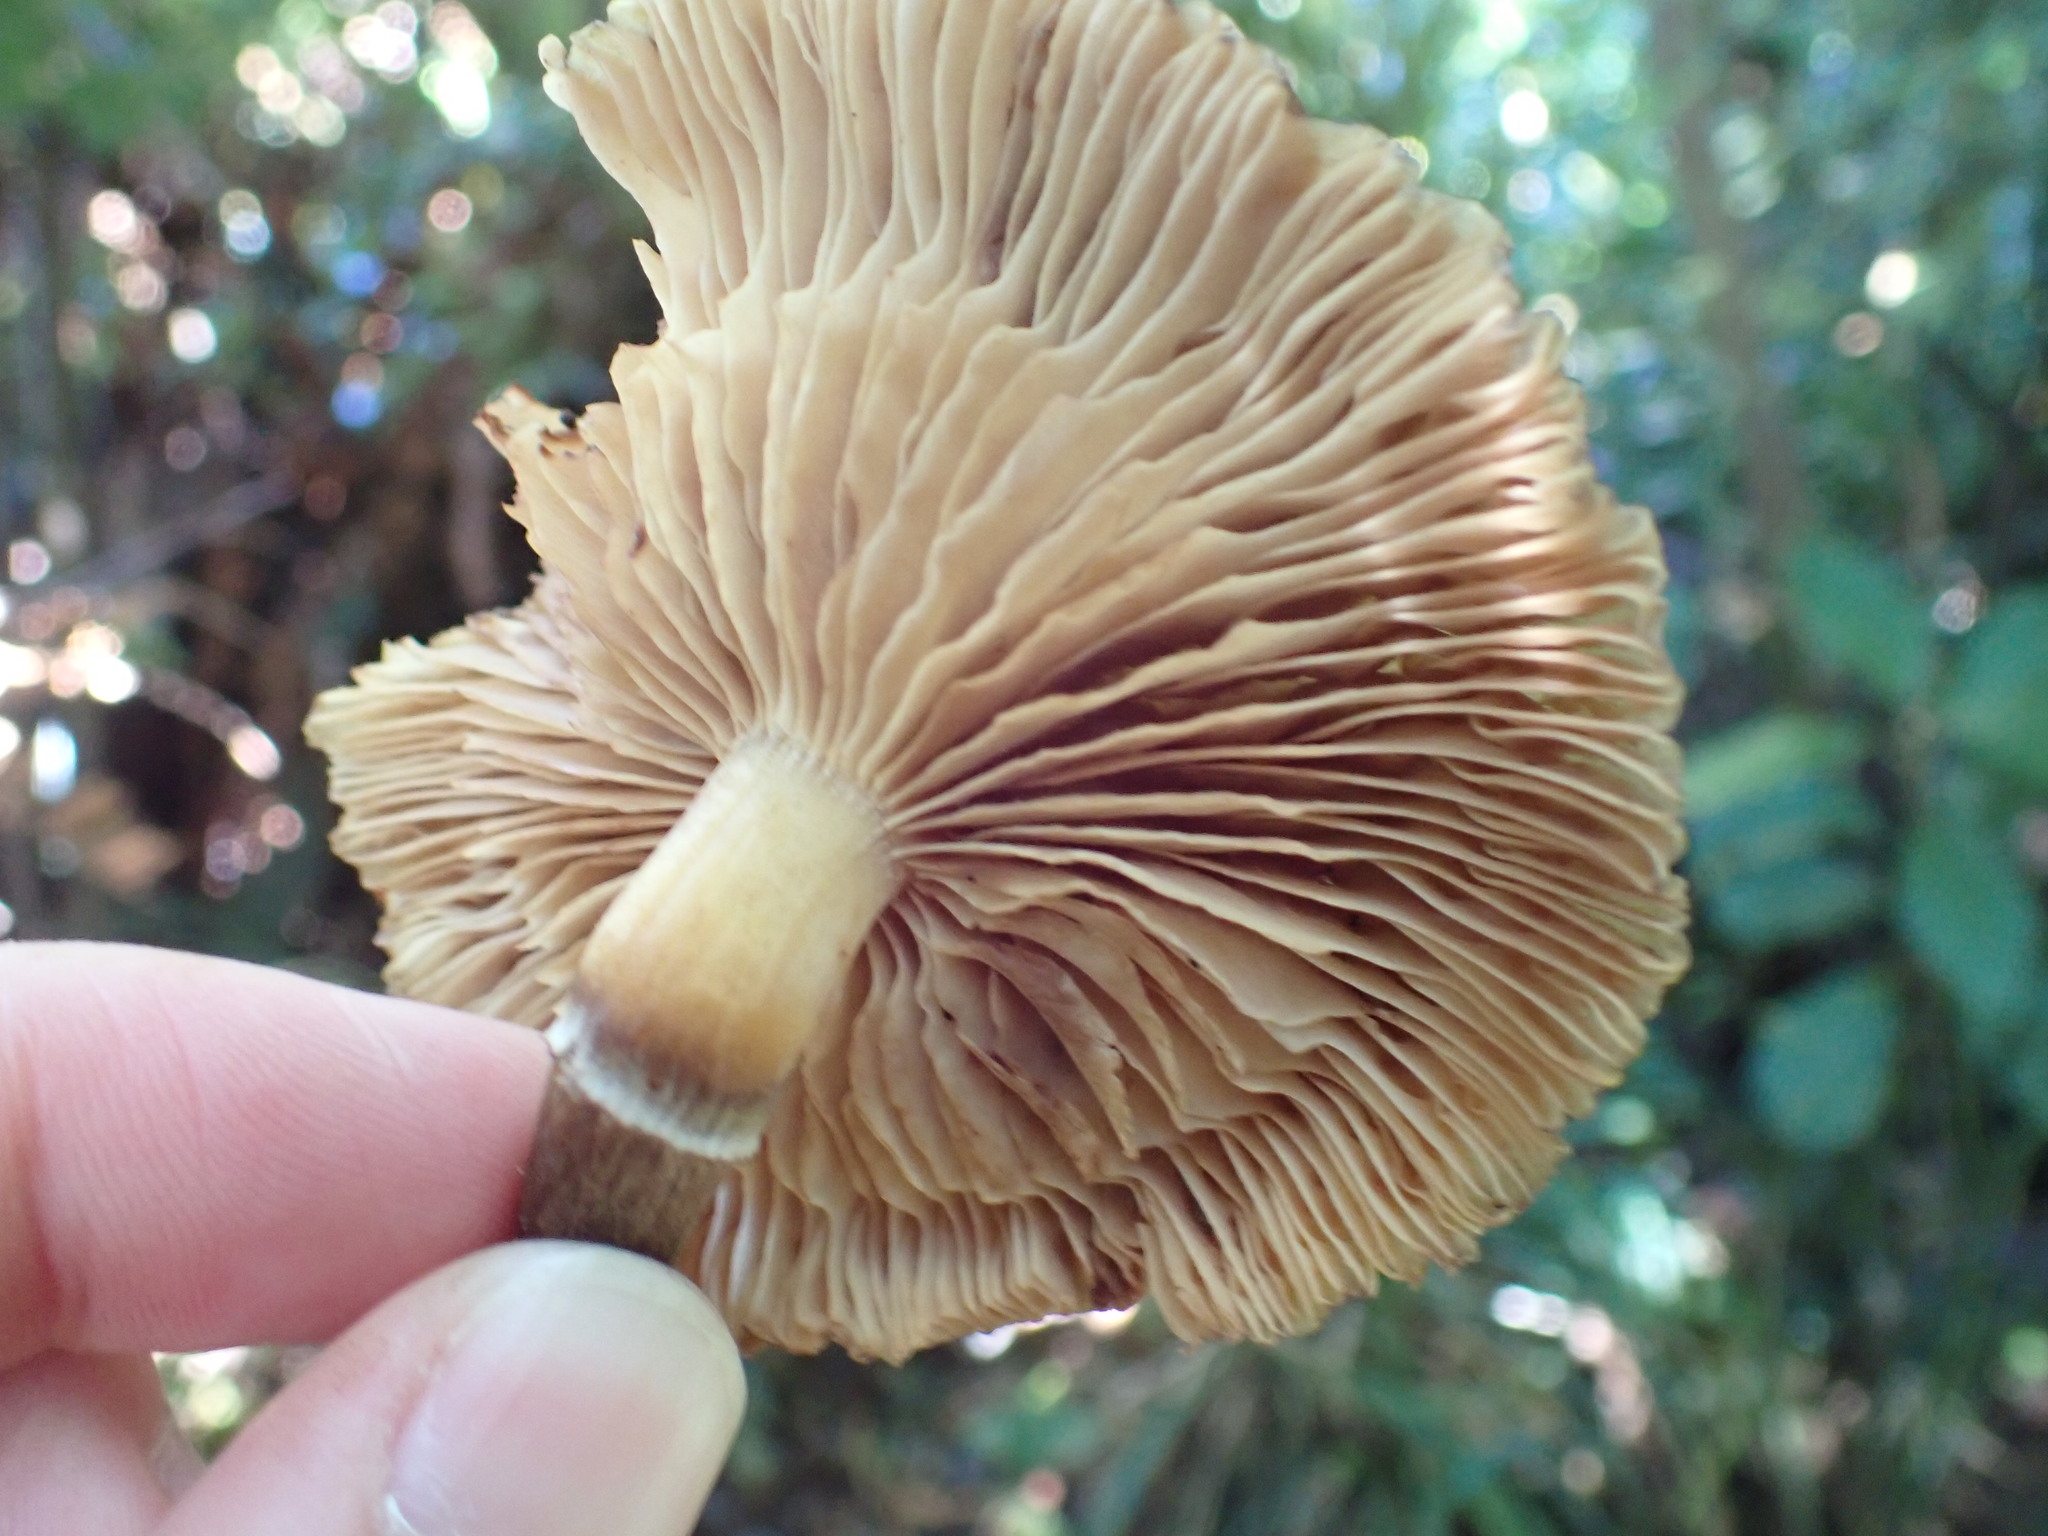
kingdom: Fungi
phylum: Basidiomycota
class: Agaricomycetes
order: Agaricales
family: Physalacriaceae
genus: Armillaria
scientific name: Armillaria novae-zelandiae
